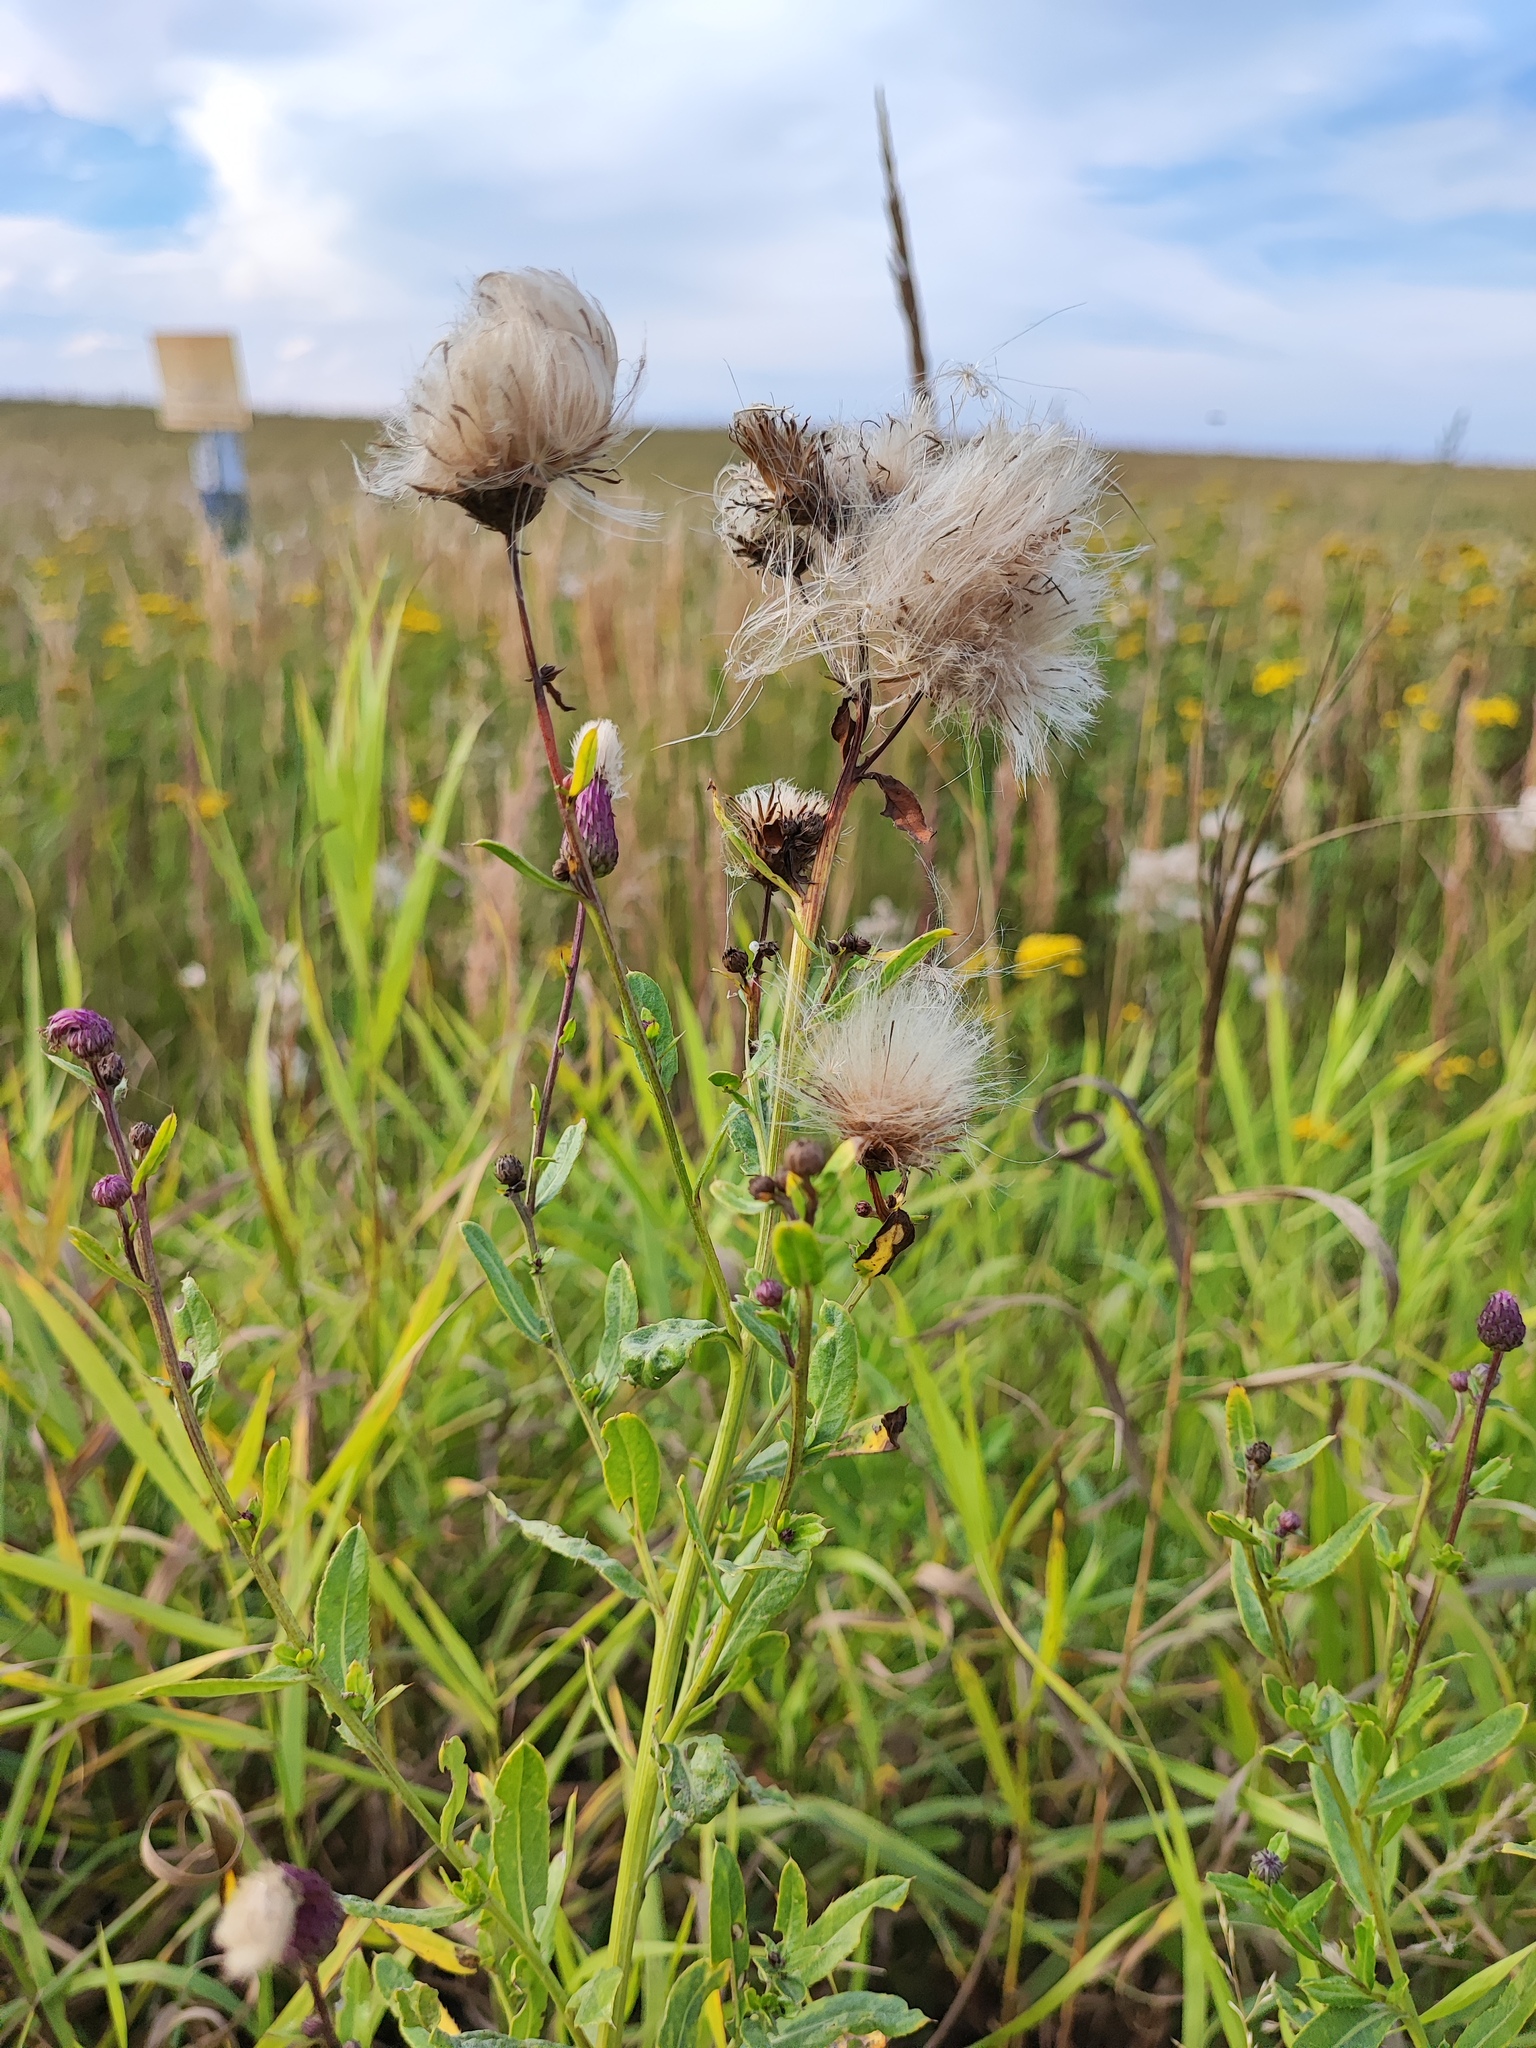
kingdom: Plantae
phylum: Tracheophyta
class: Magnoliopsida
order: Asterales
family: Asteraceae
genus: Cirsium
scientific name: Cirsium arvense
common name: Creeping thistle
